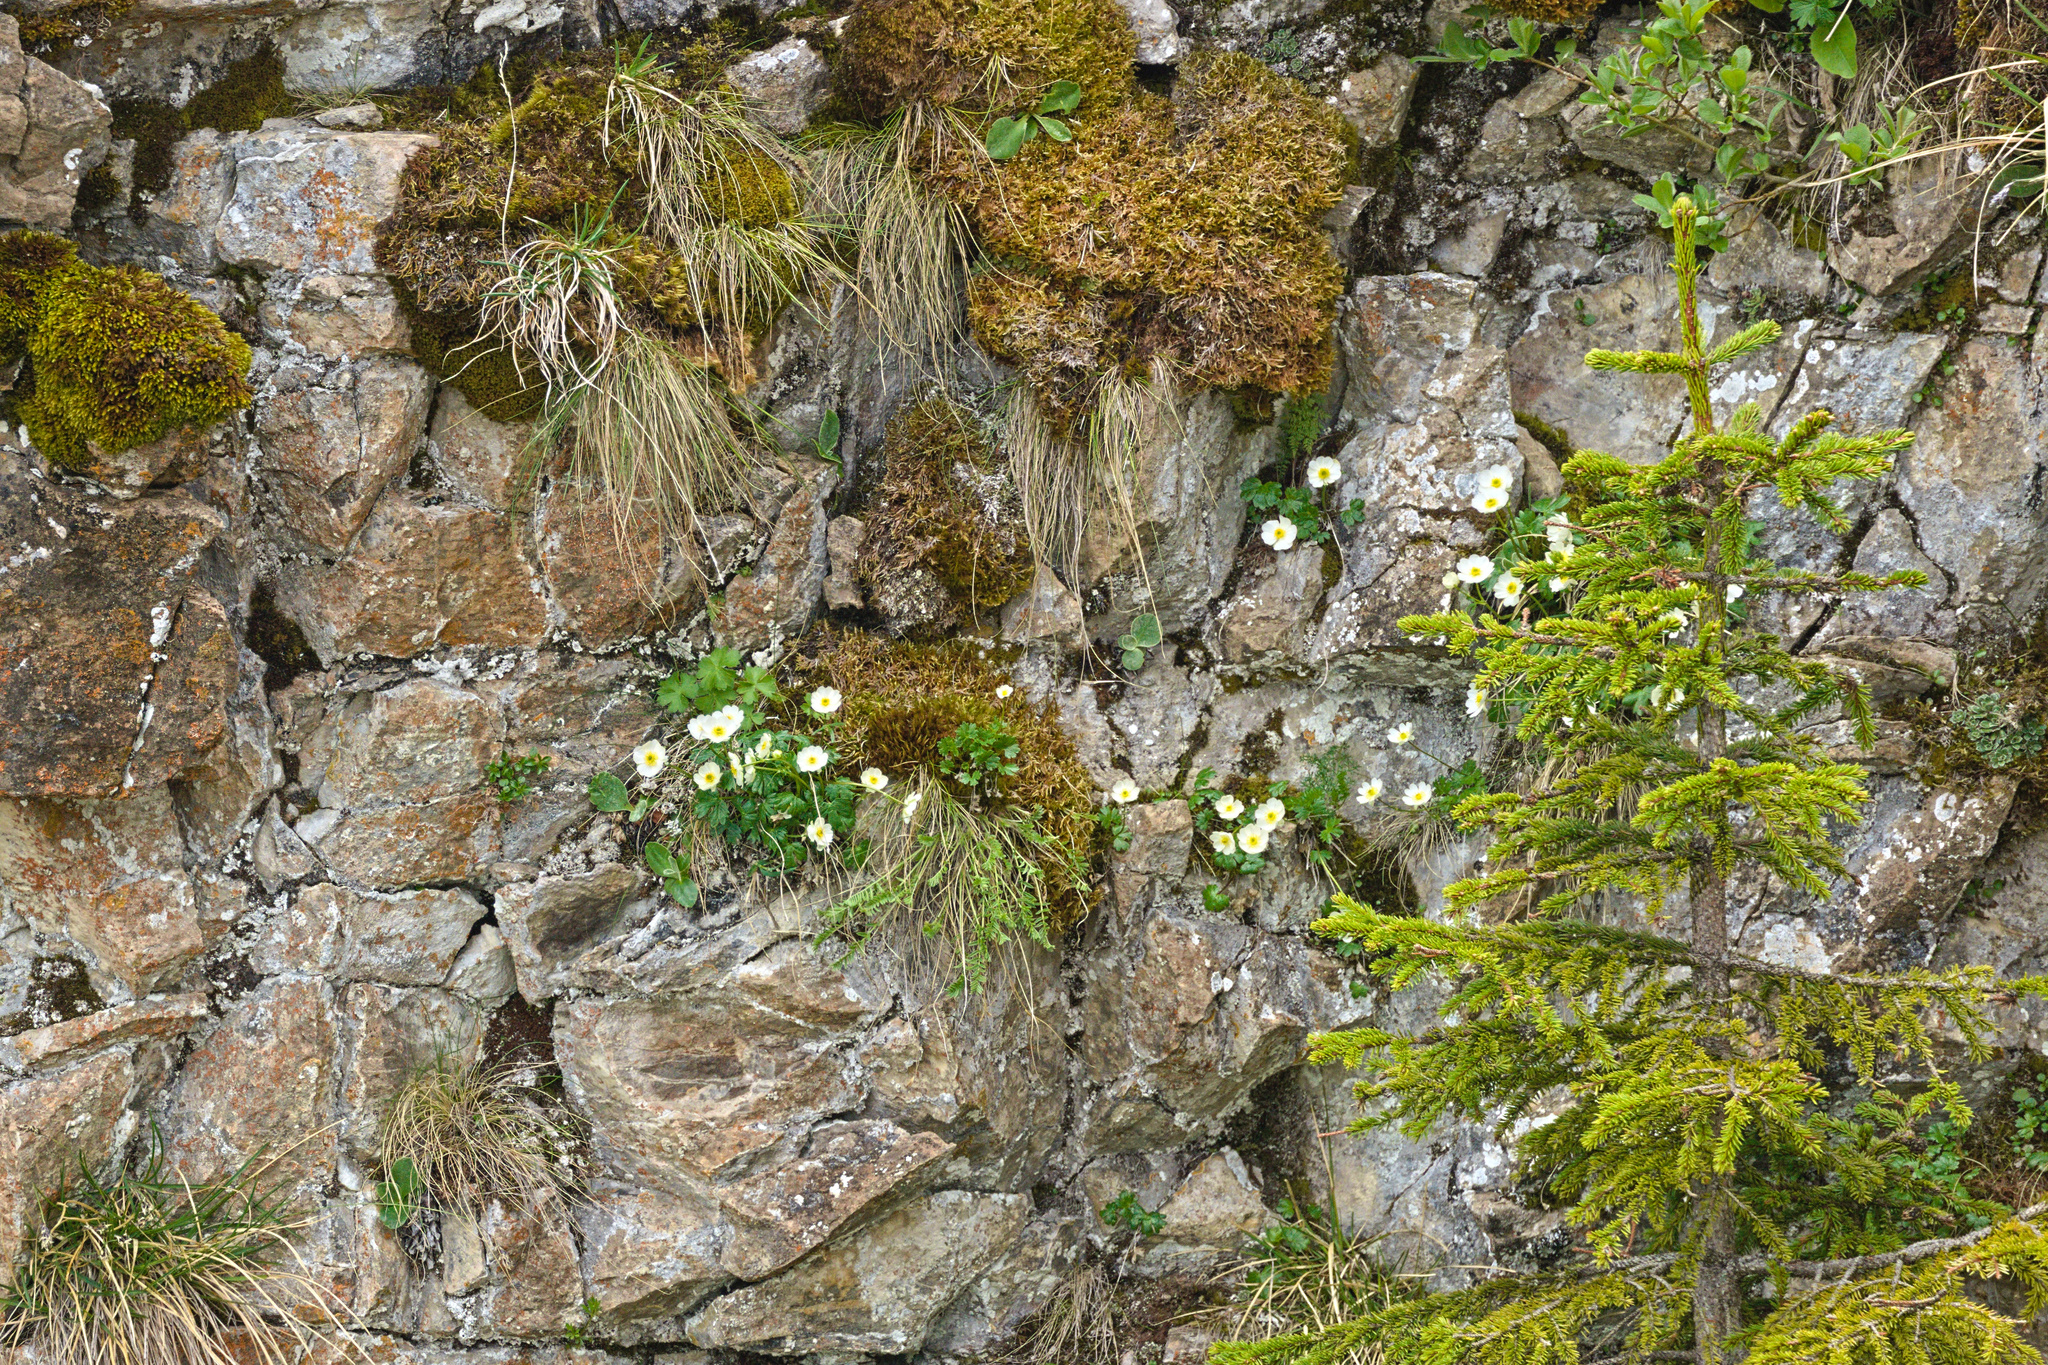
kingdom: Plantae
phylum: Tracheophyta
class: Magnoliopsida
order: Ranunculales
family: Ranunculaceae
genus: Ranunculus
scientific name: Ranunculus alpestris
